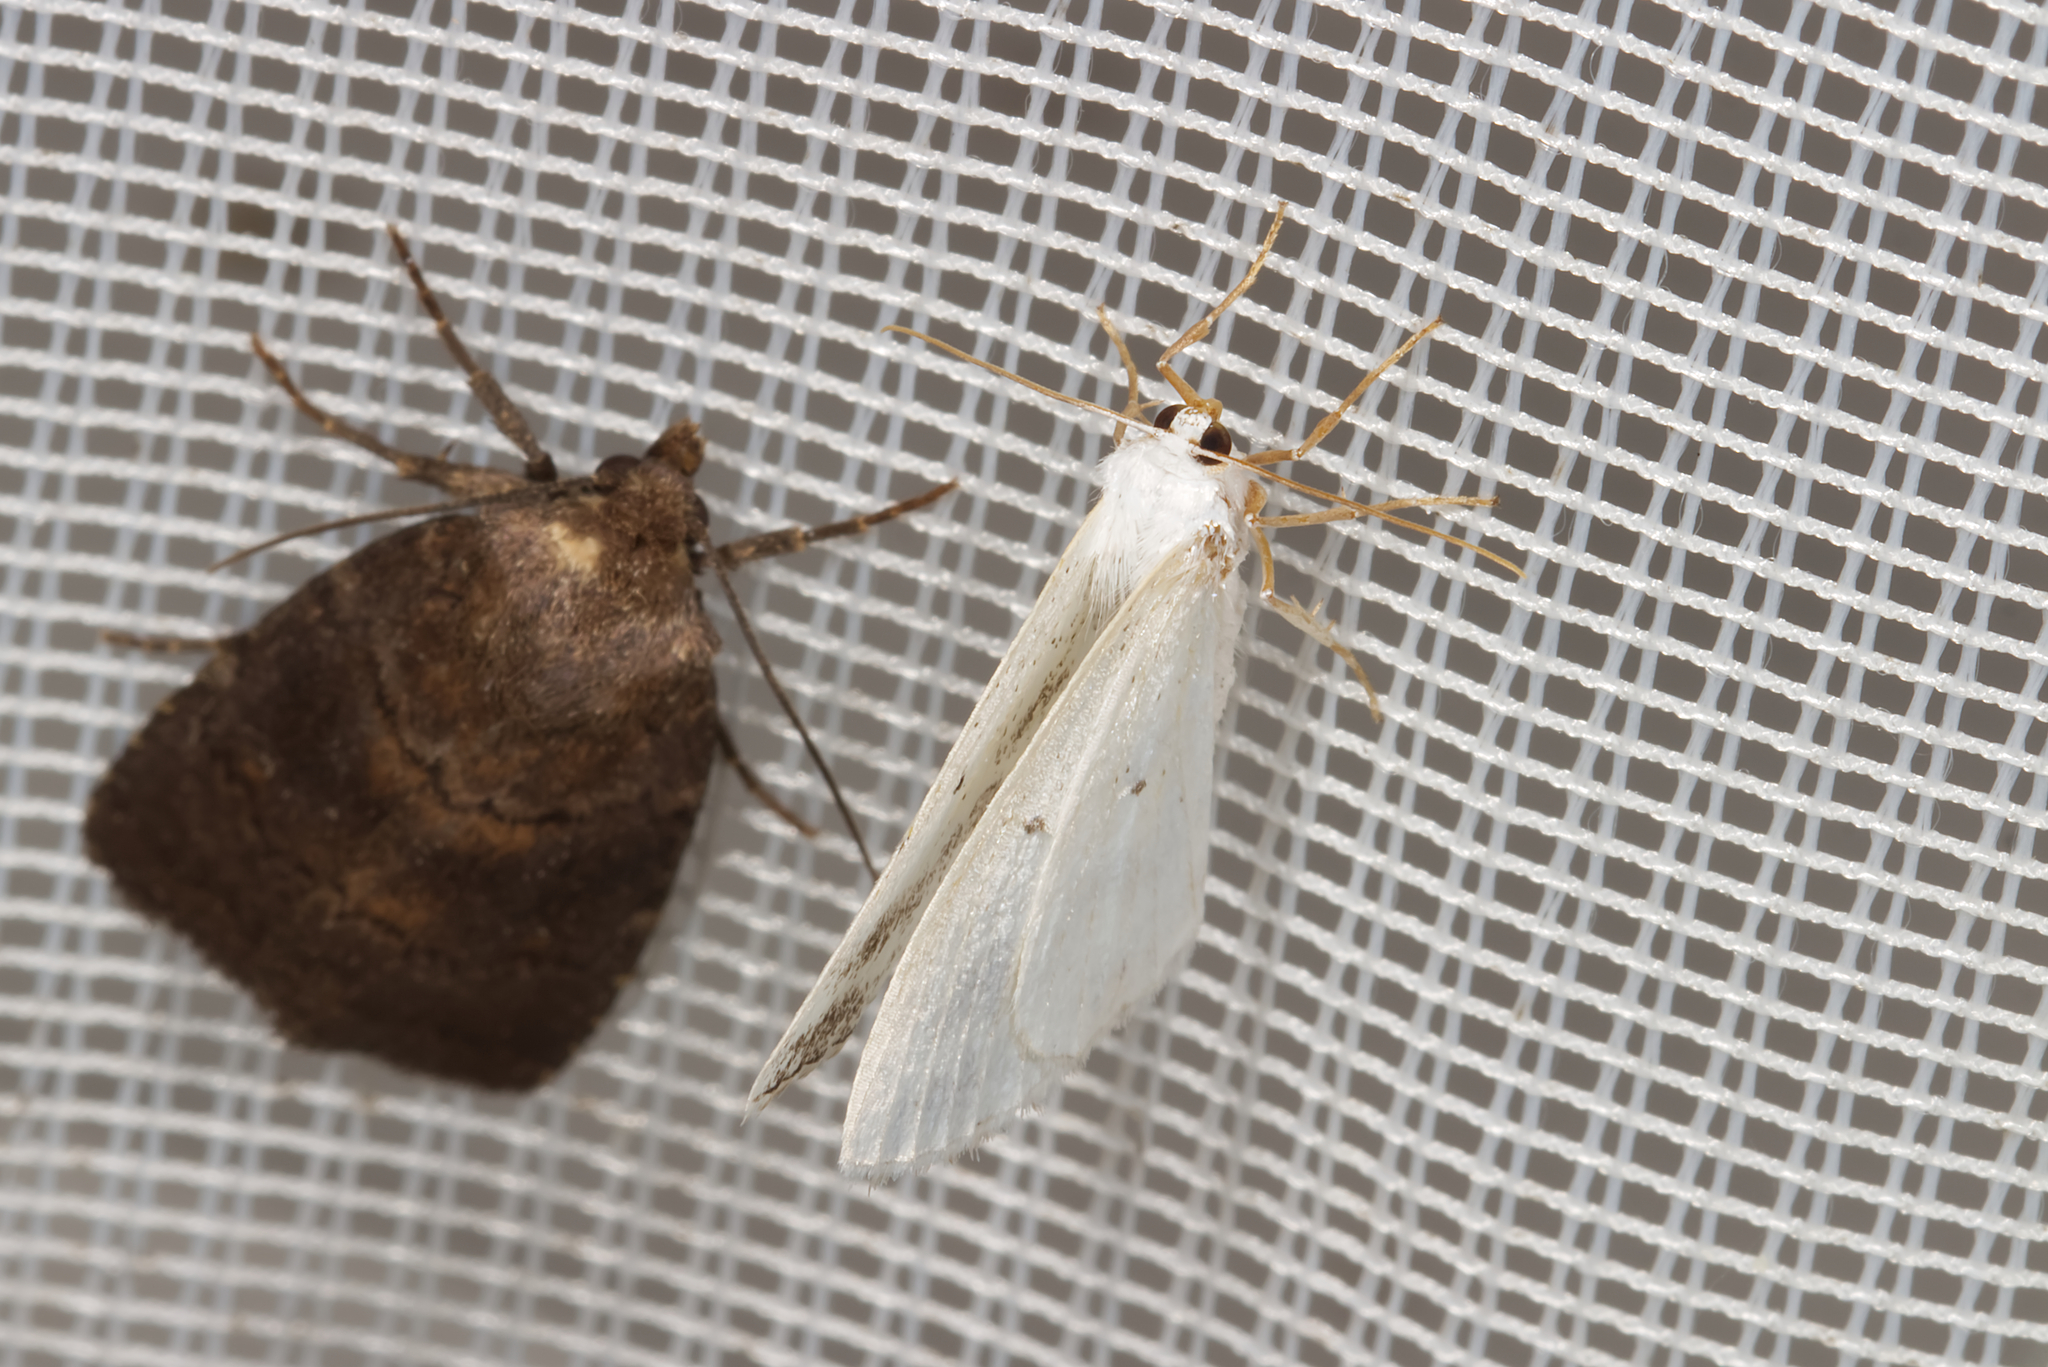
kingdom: Animalia
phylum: Arthropoda
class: Insecta
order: Lepidoptera
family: Geometridae
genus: Lomographa
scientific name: Lomographa temerata
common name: Clouded silver
